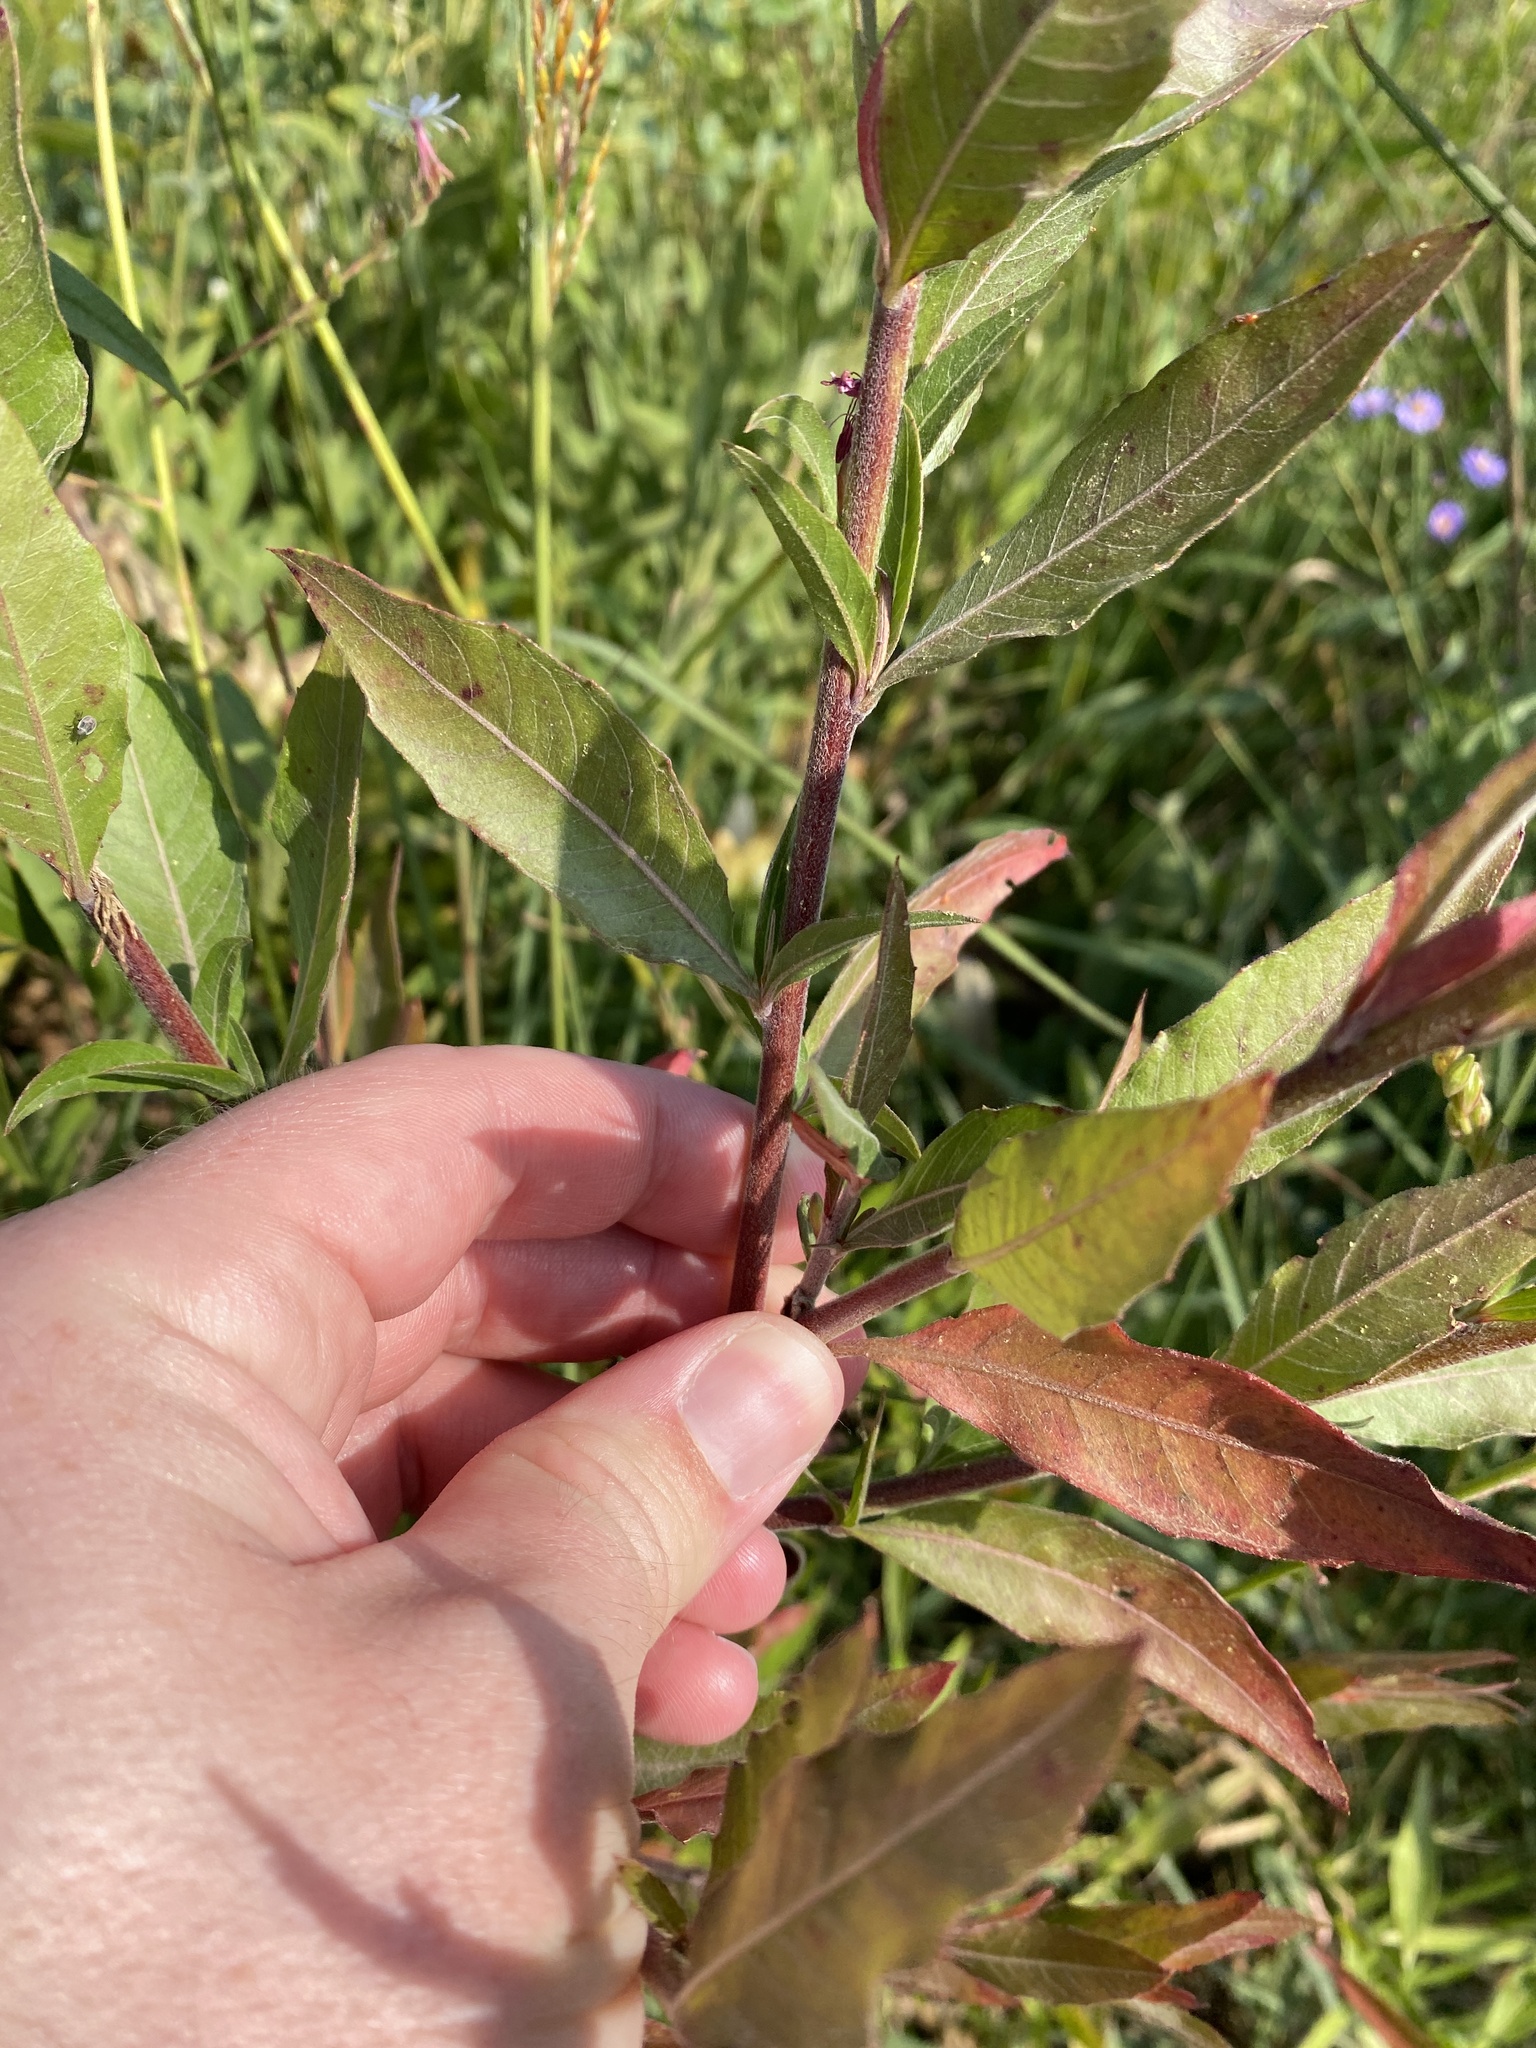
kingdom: Plantae
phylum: Tracheophyta
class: Magnoliopsida
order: Myrtales
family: Onagraceae
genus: Oenothera
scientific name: Oenothera gaura
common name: Biennial beeblossom
